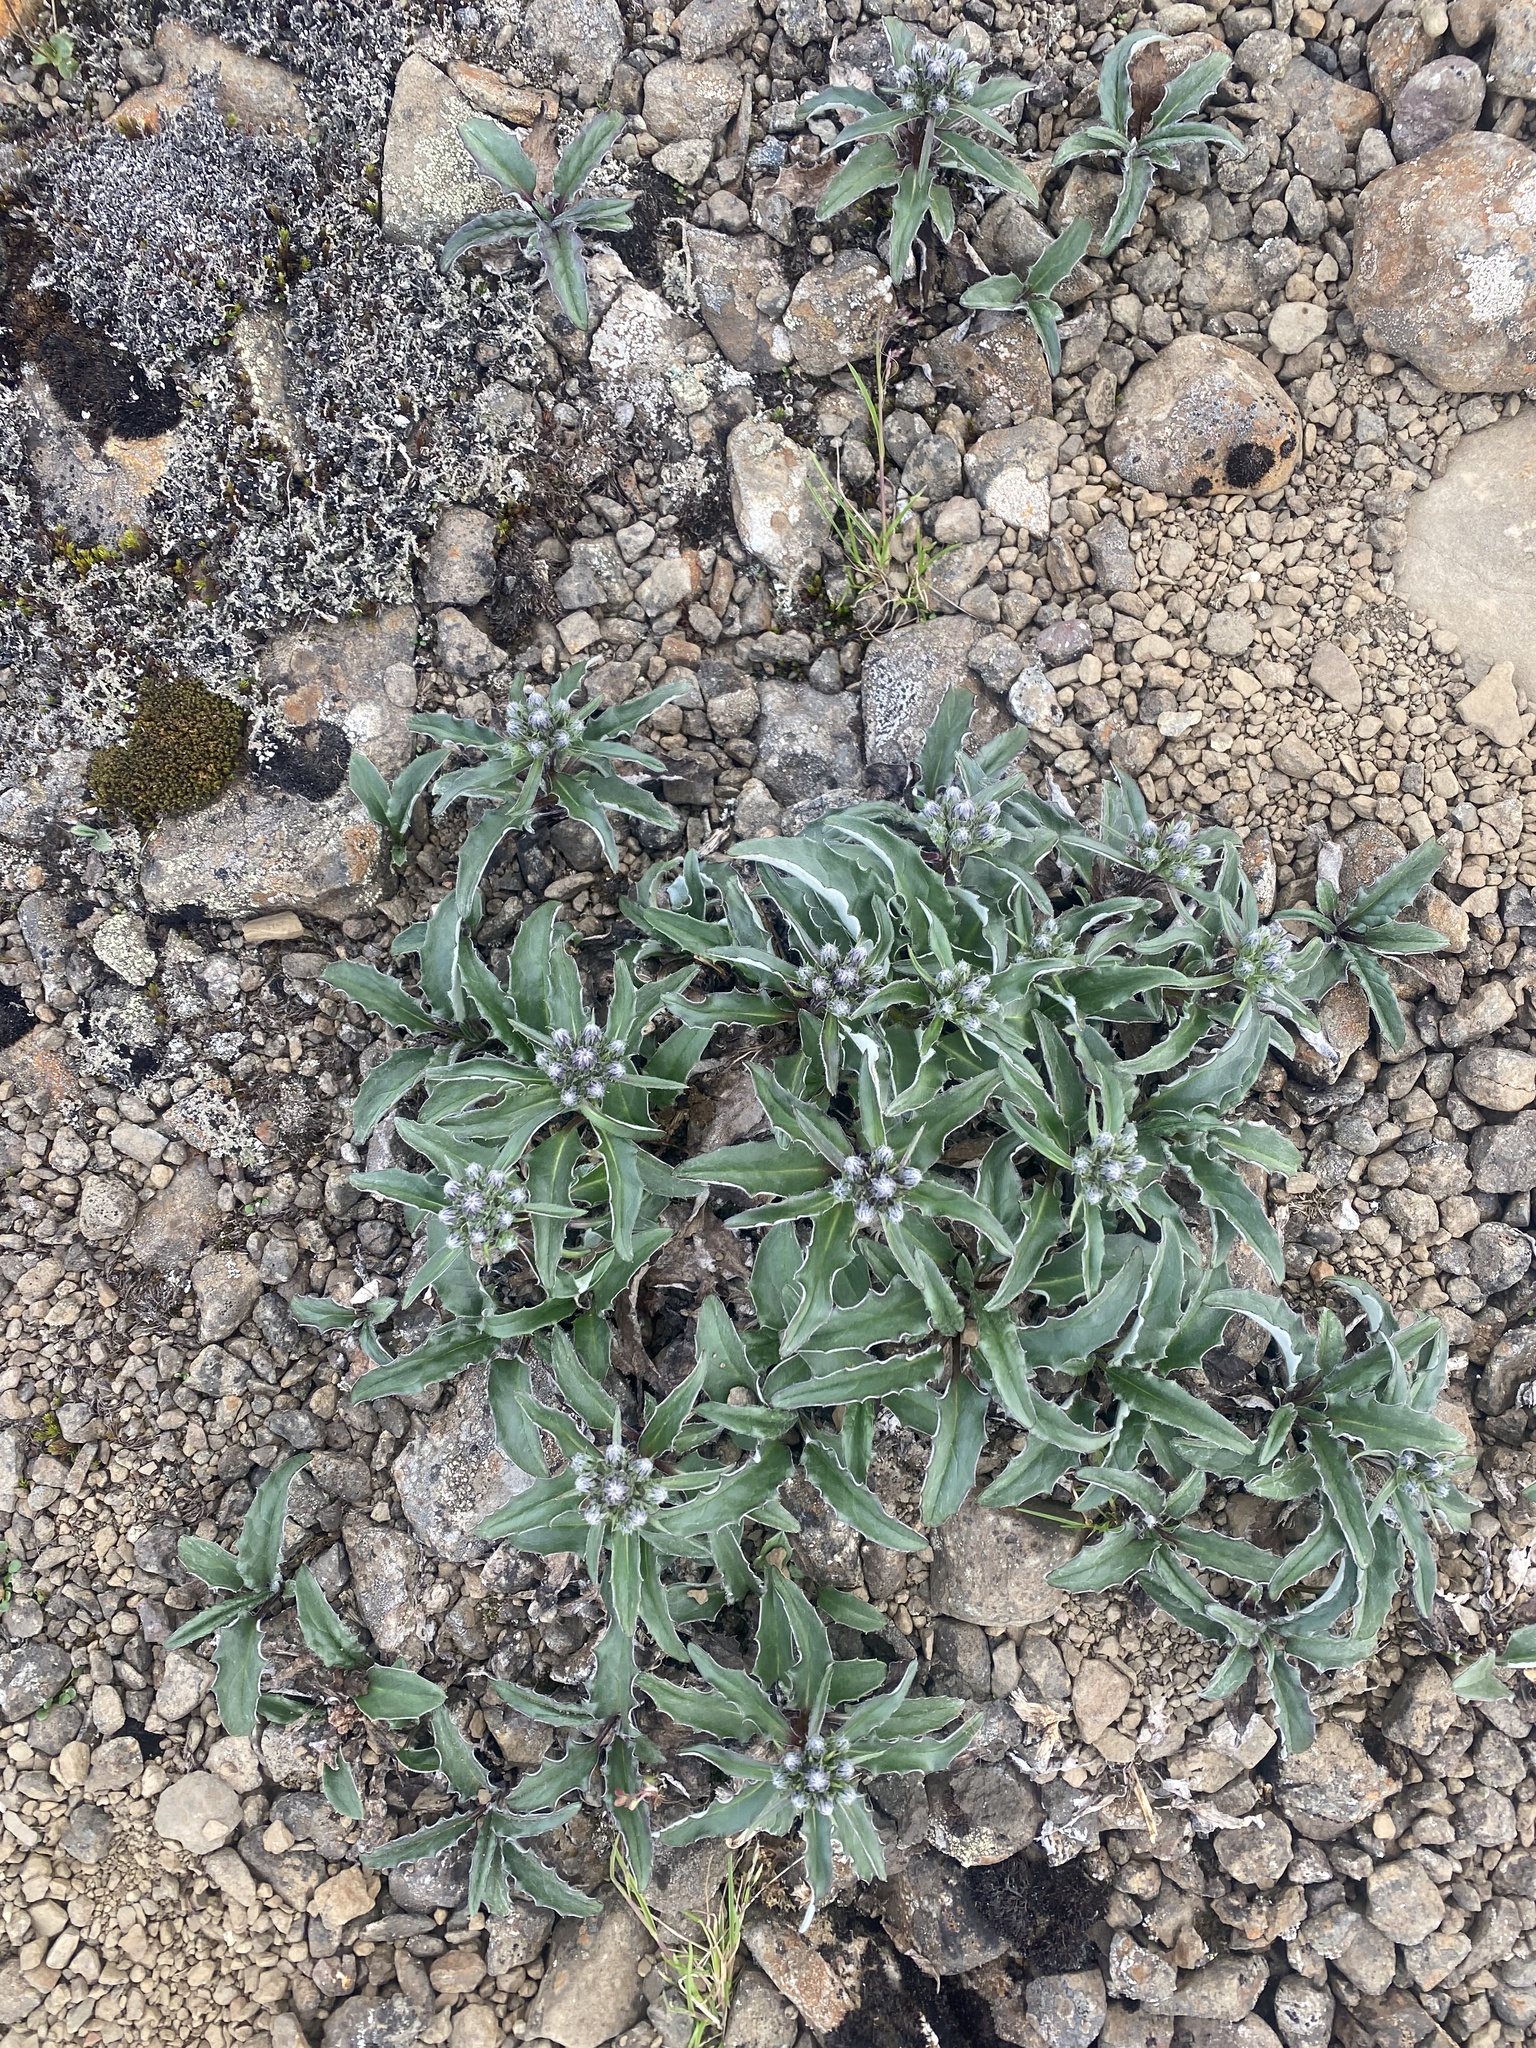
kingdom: Plantae
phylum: Tracheophyta
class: Magnoliopsida
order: Asterales
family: Asteraceae
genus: Saussurea
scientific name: Saussurea tilesii
